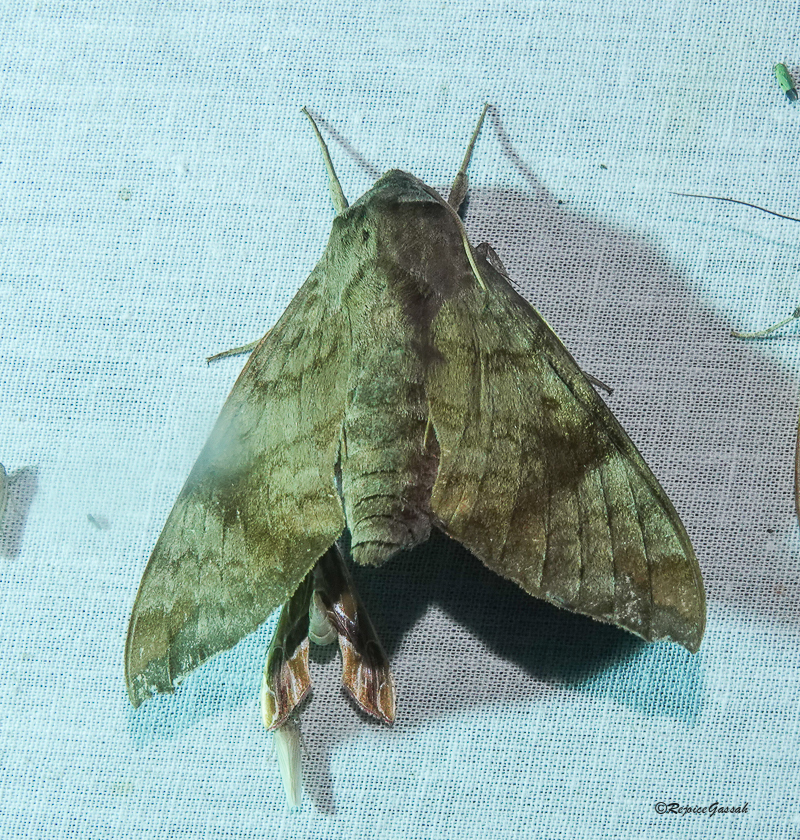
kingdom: Animalia
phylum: Arthropoda
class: Insecta
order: Lepidoptera
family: Sphingidae
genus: Acosmeryx
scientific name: Acosmeryx shervillii
